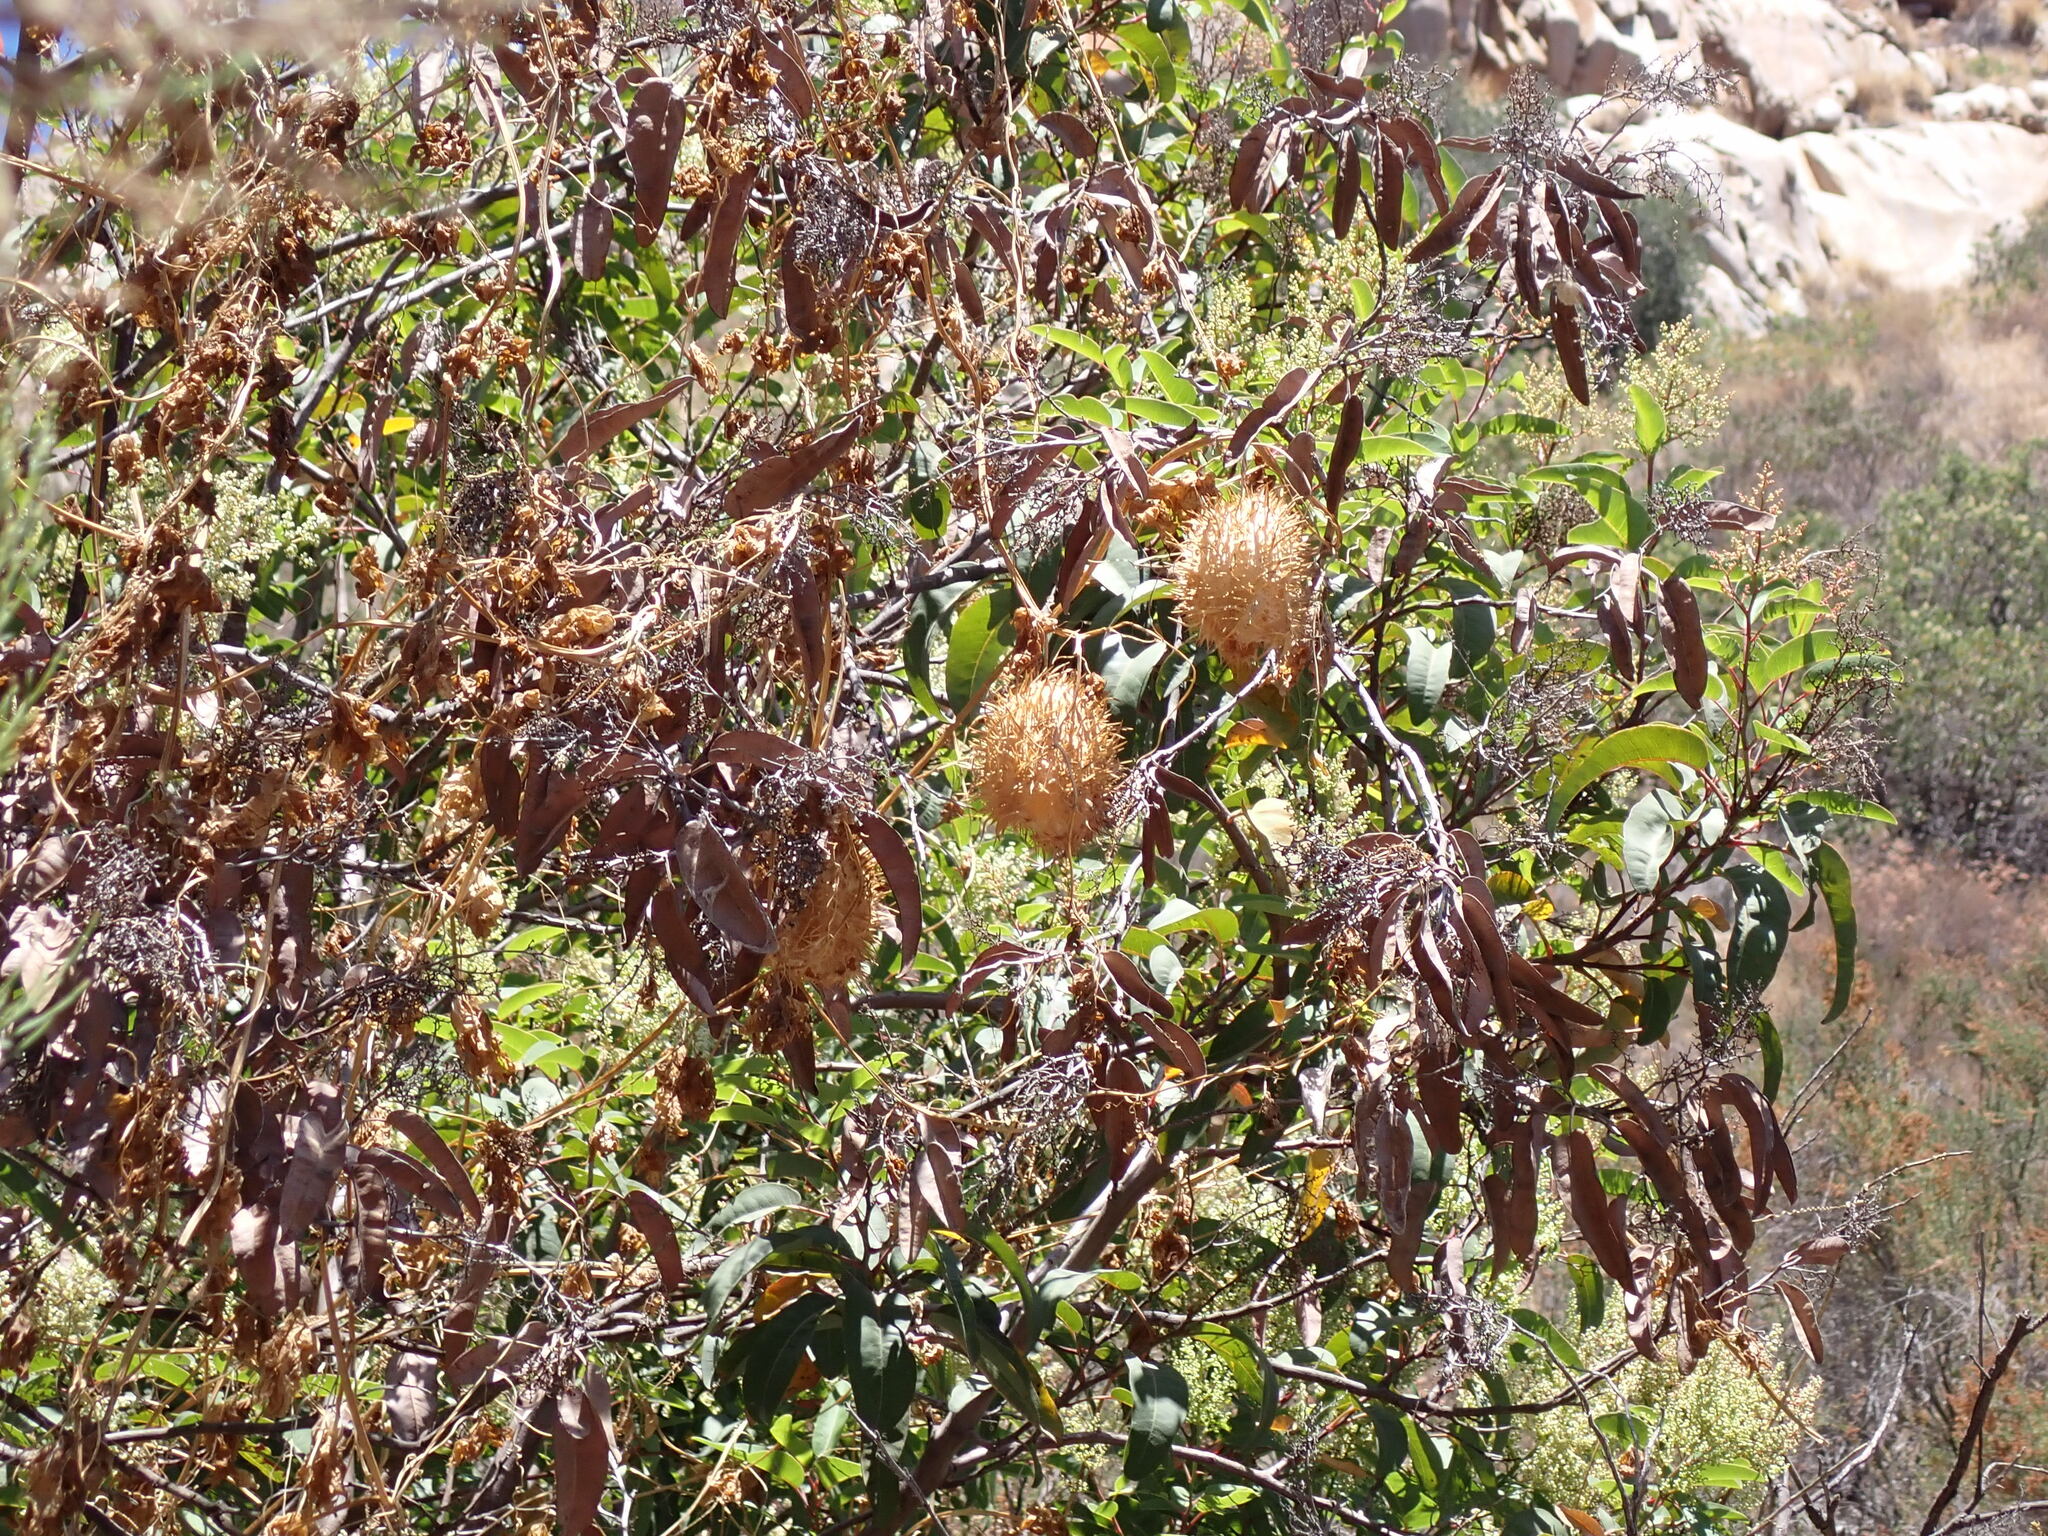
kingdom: Plantae
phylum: Tracheophyta
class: Magnoliopsida
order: Cucurbitales
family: Cucurbitaceae
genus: Marah
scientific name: Marah macrocarpa
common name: Cucamonga manroot
